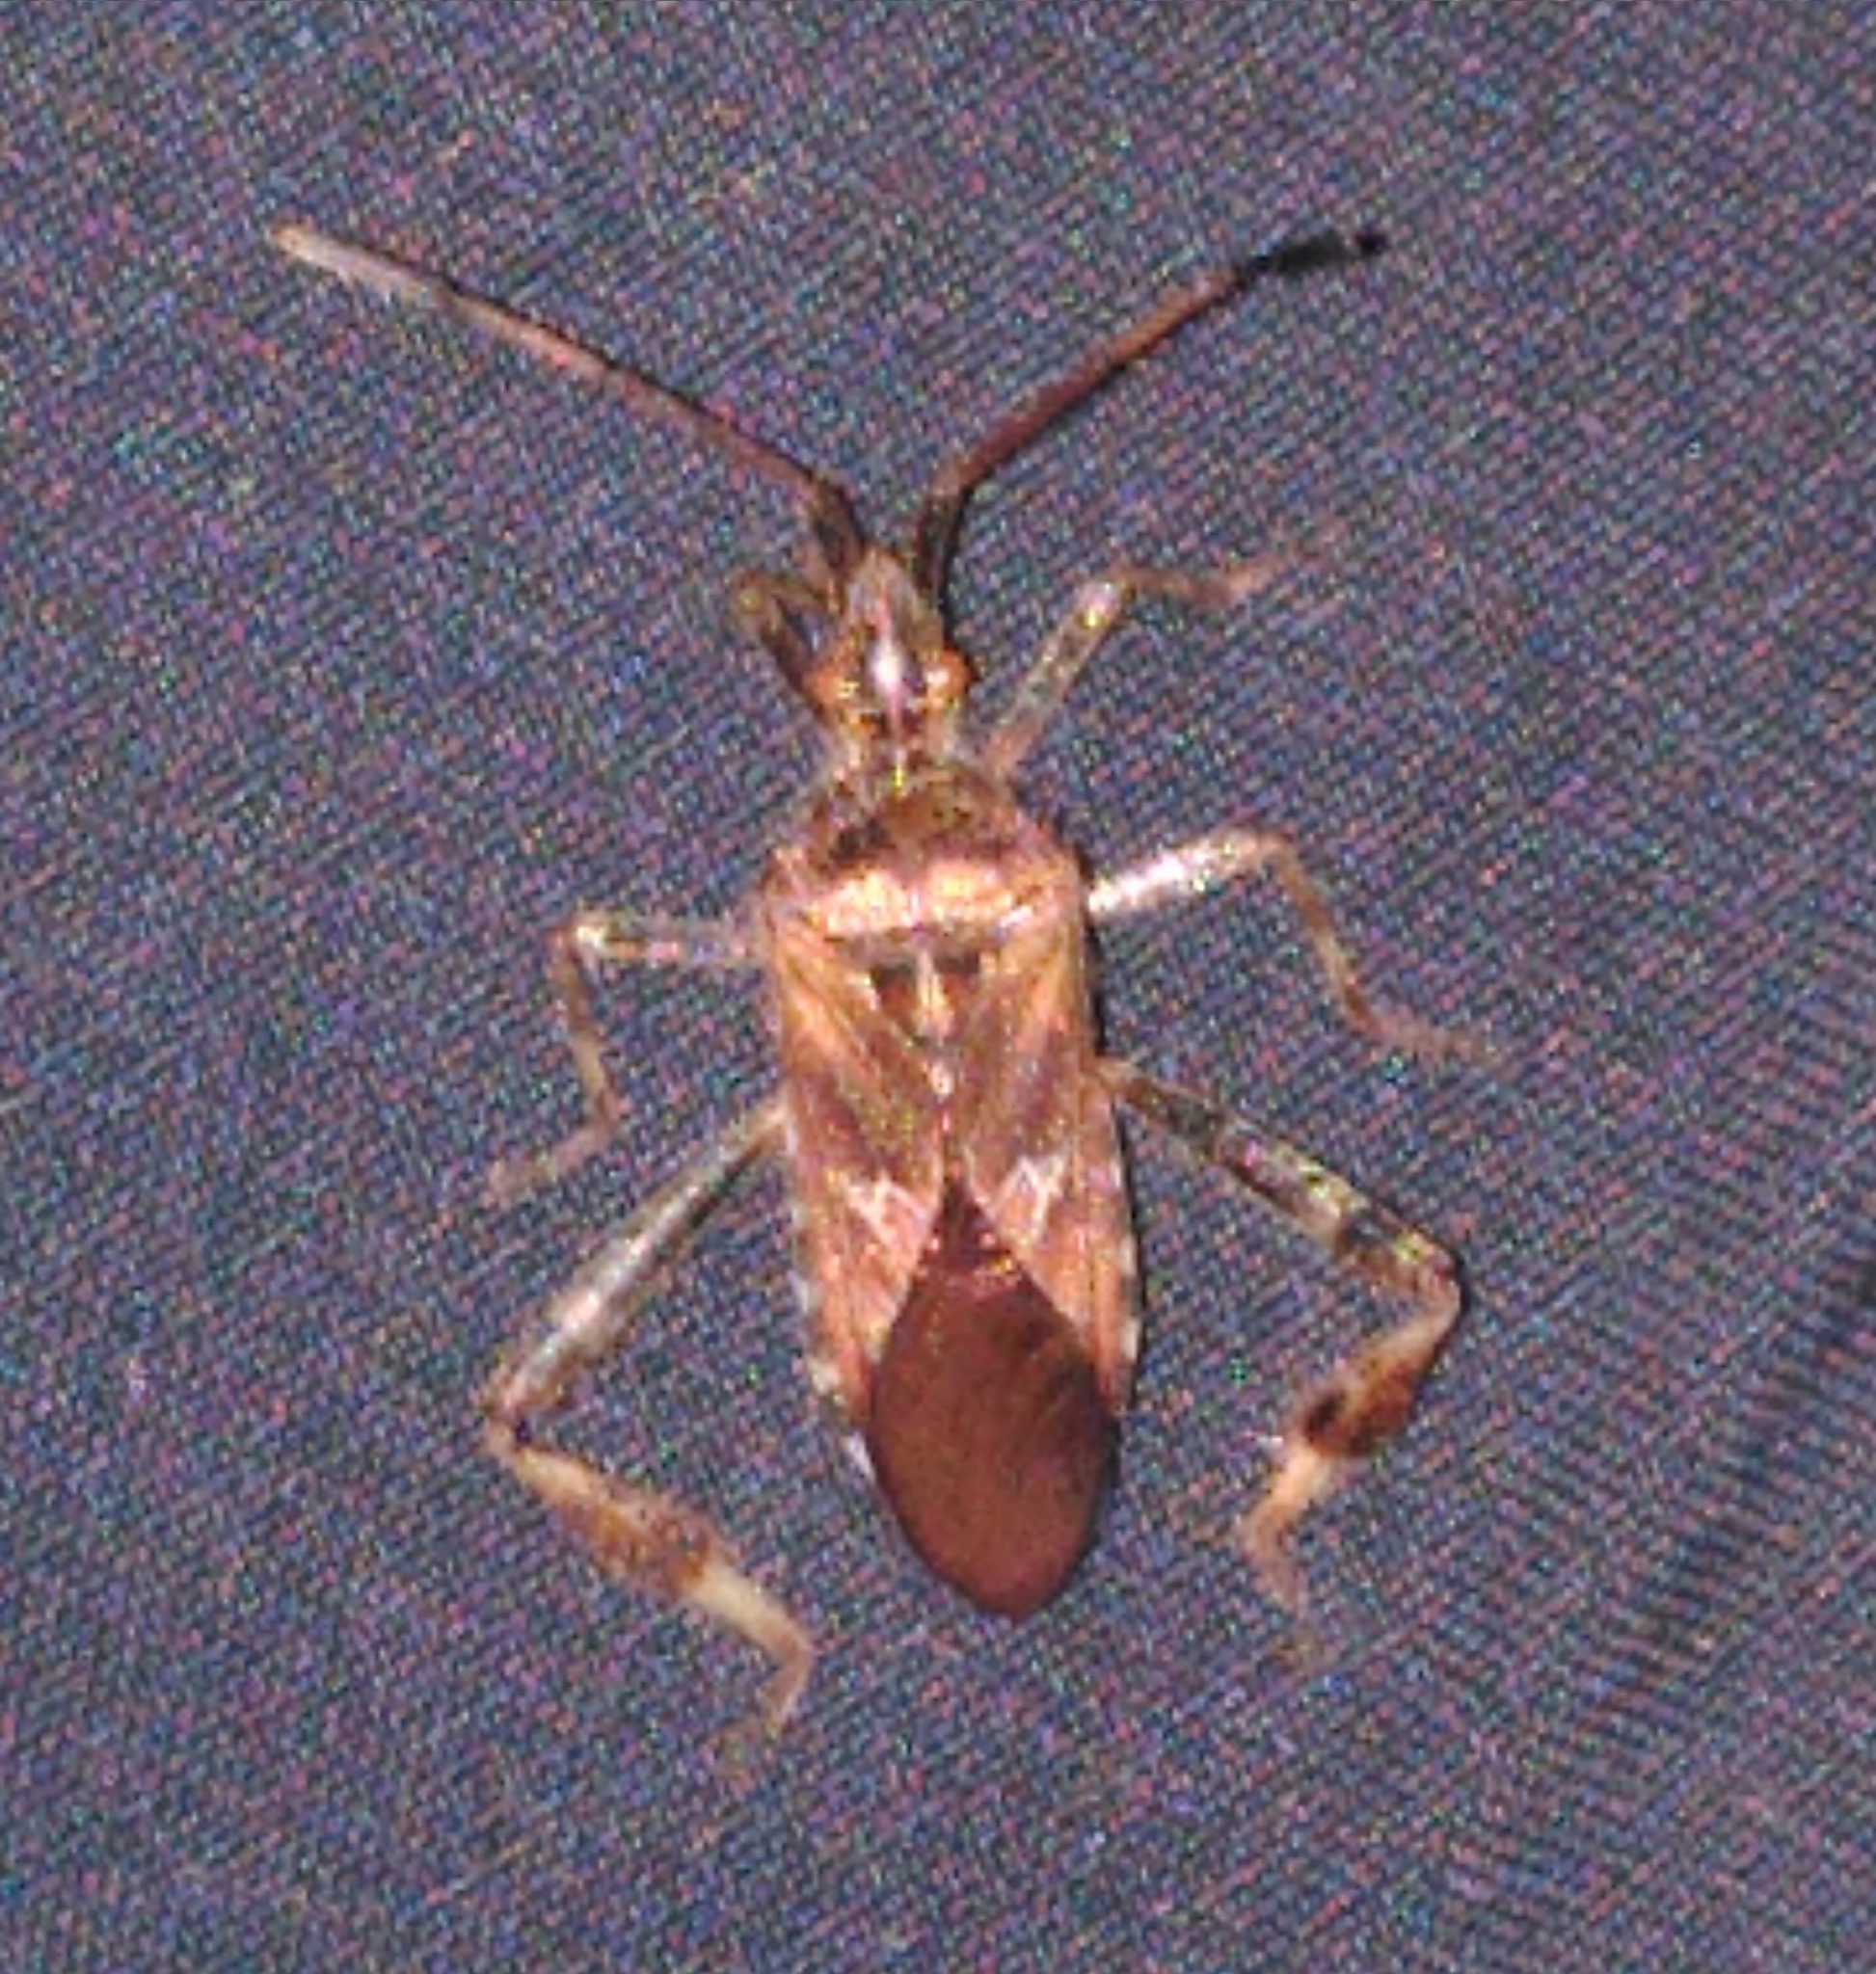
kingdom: Animalia
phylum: Arthropoda
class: Insecta
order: Hemiptera
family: Coreidae
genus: Leptoglossus
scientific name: Leptoglossus occidentalis
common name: Western conifer-seed bug
